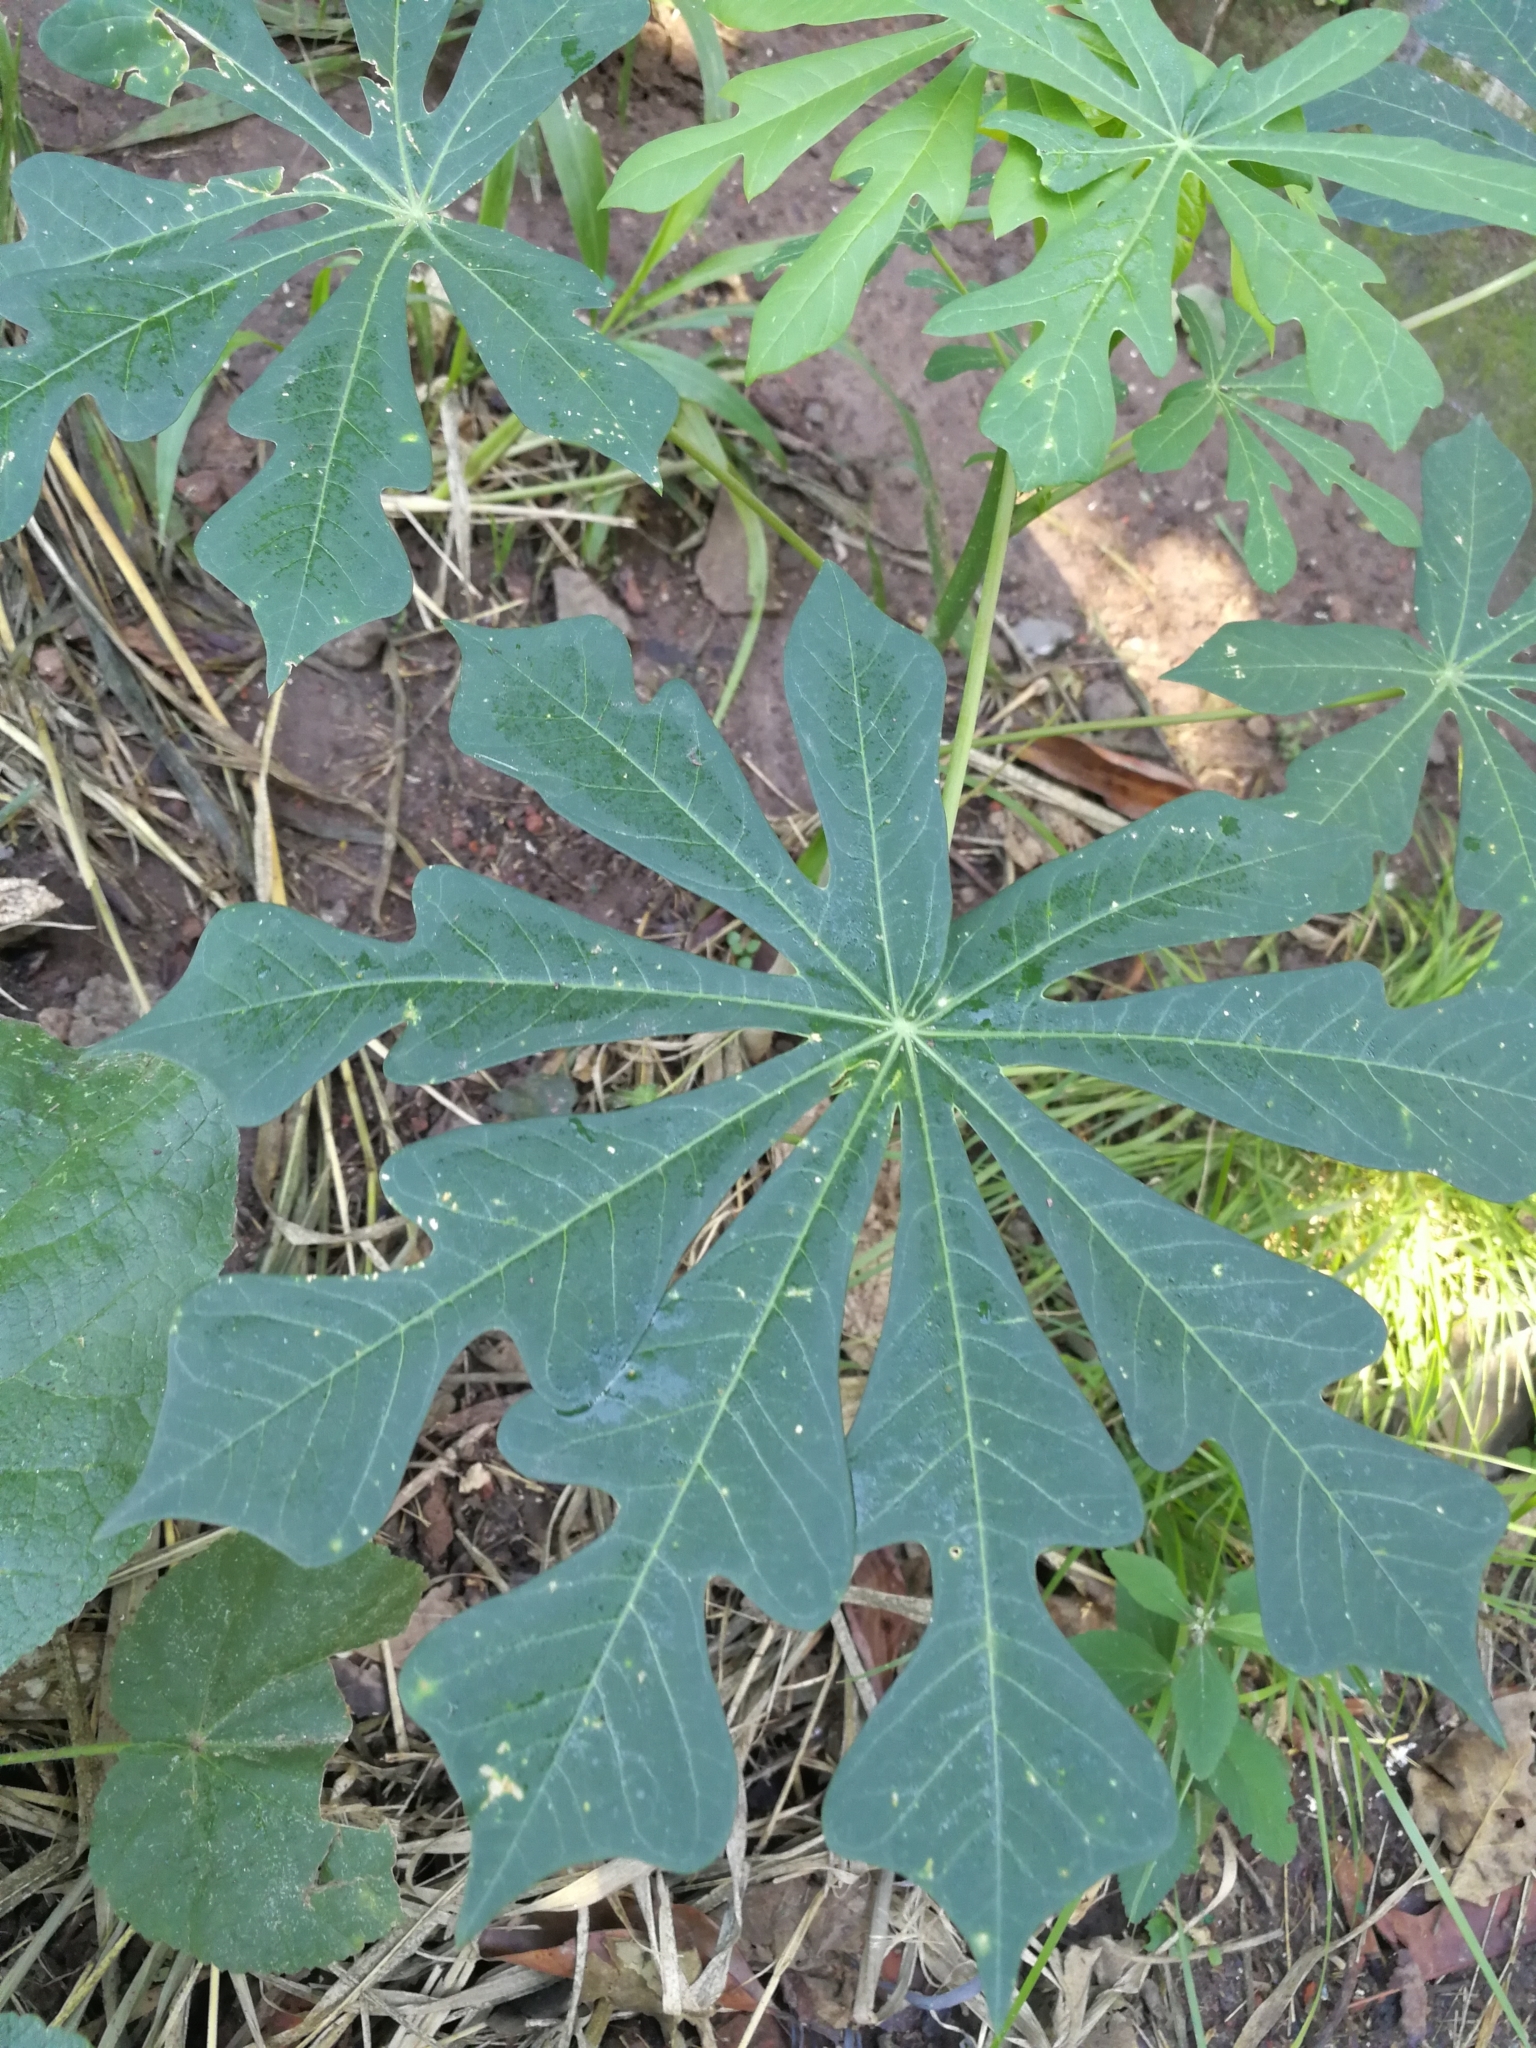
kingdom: Plantae
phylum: Tracheophyta
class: Magnoliopsida
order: Malpighiales
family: Euphorbiaceae
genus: Manihot
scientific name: Manihot grahamii
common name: Graham's manihot
